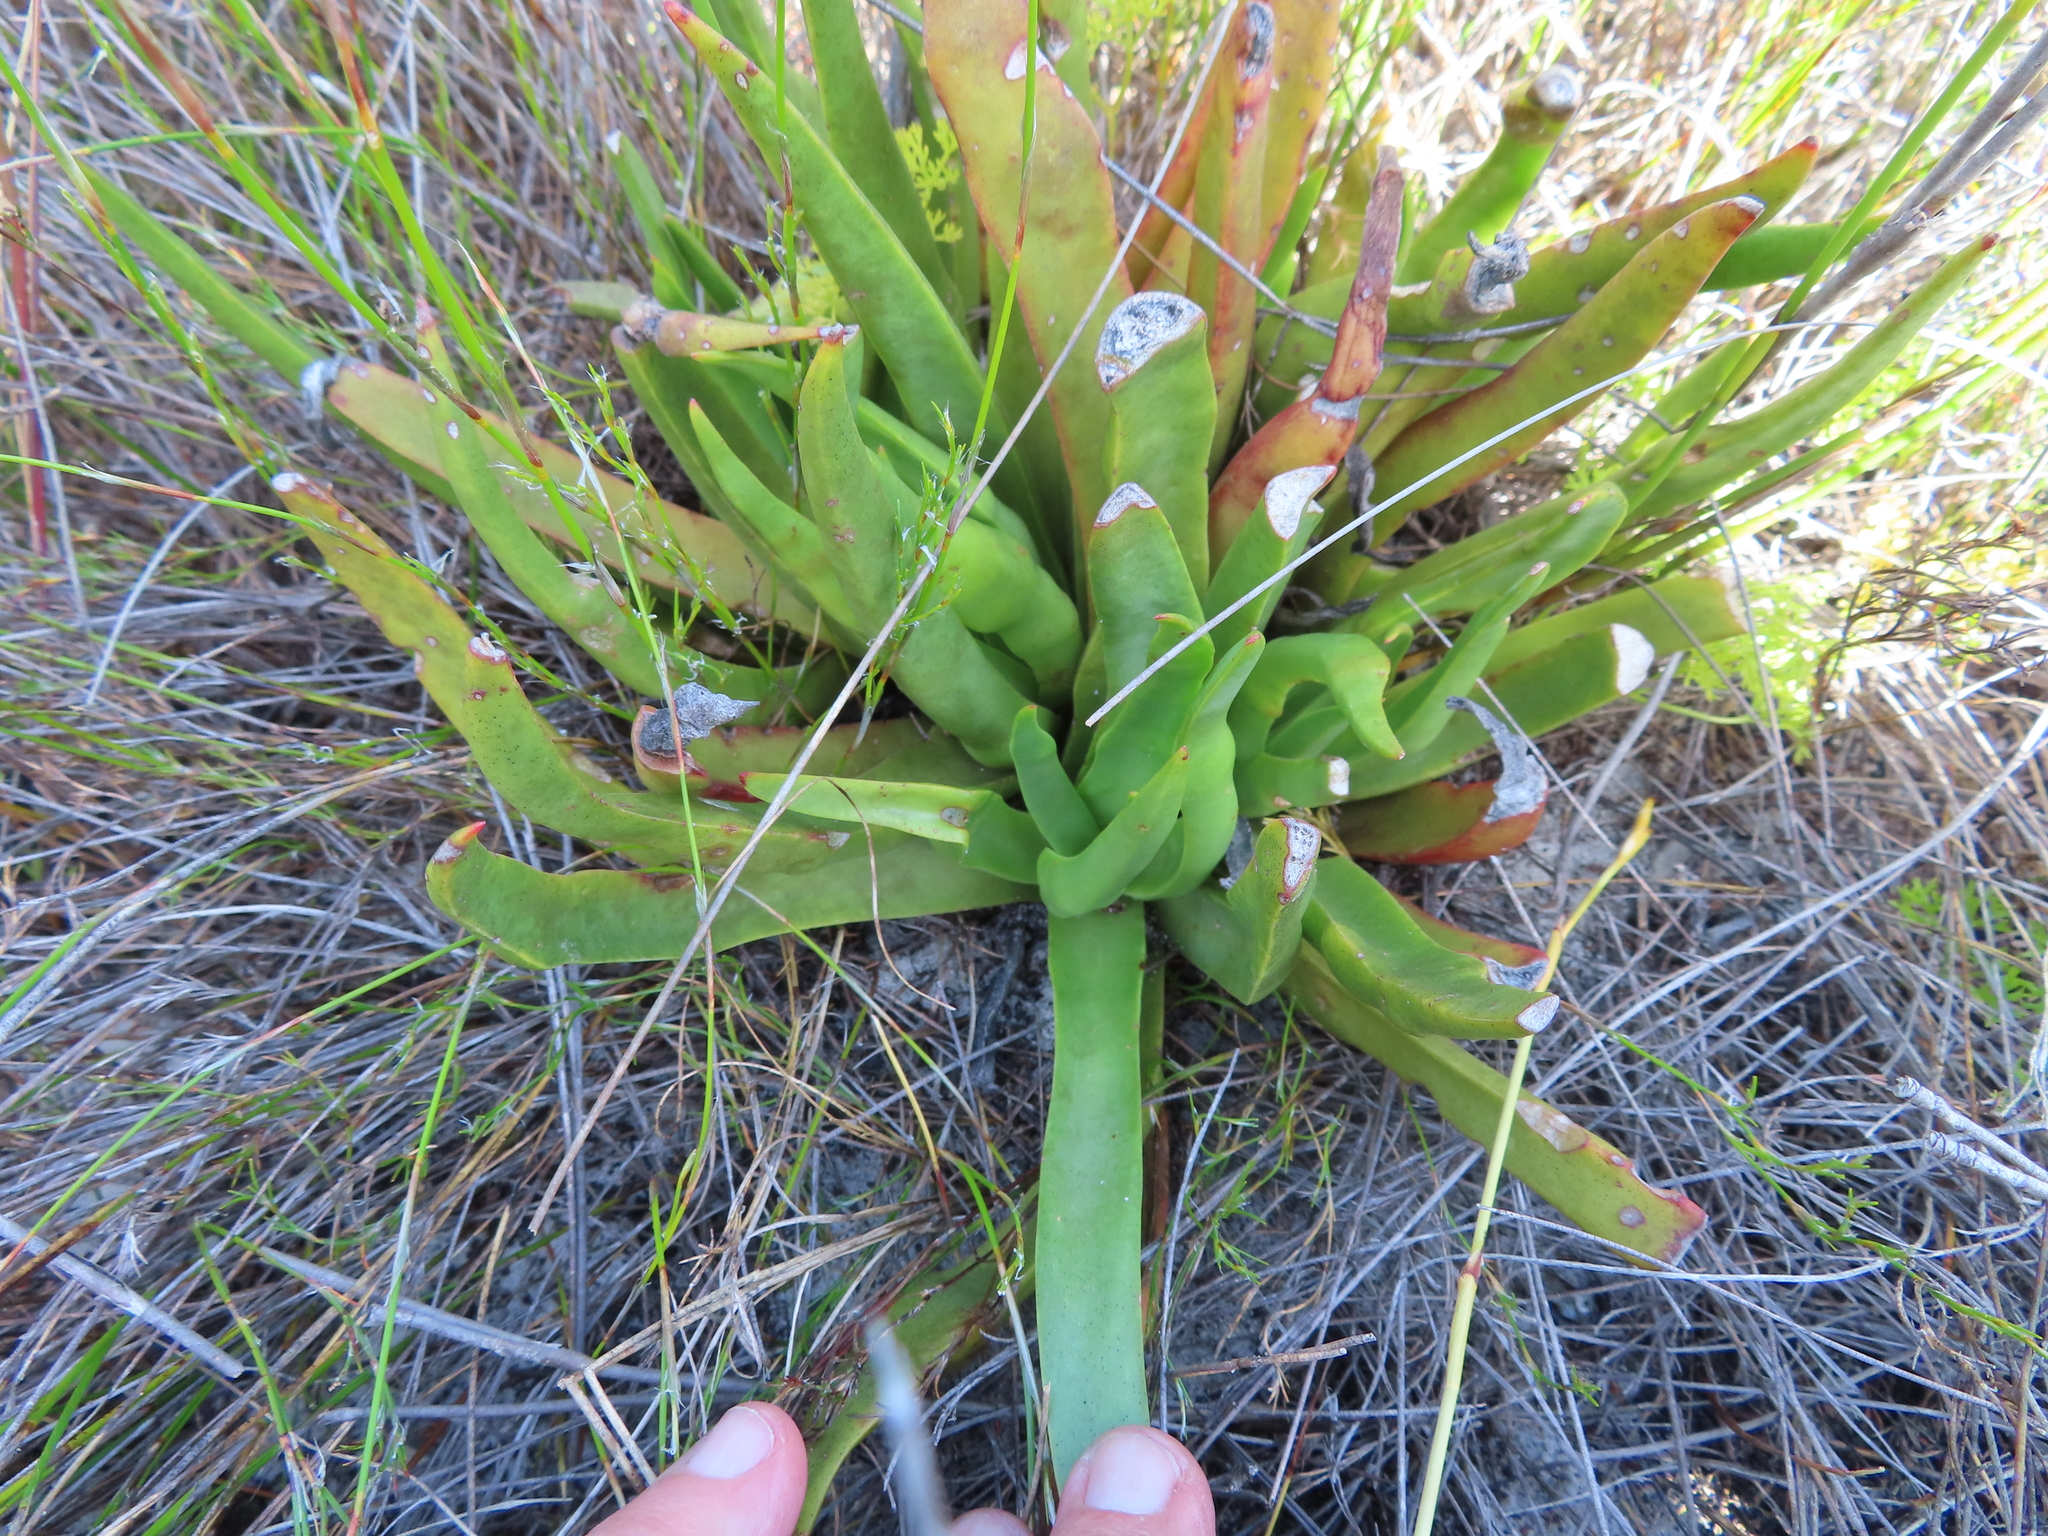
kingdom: Plantae
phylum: Tracheophyta
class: Magnoliopsida
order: Saxifragales
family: Crassulaceae
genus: Crassula
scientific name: Crassula nudicaulis
